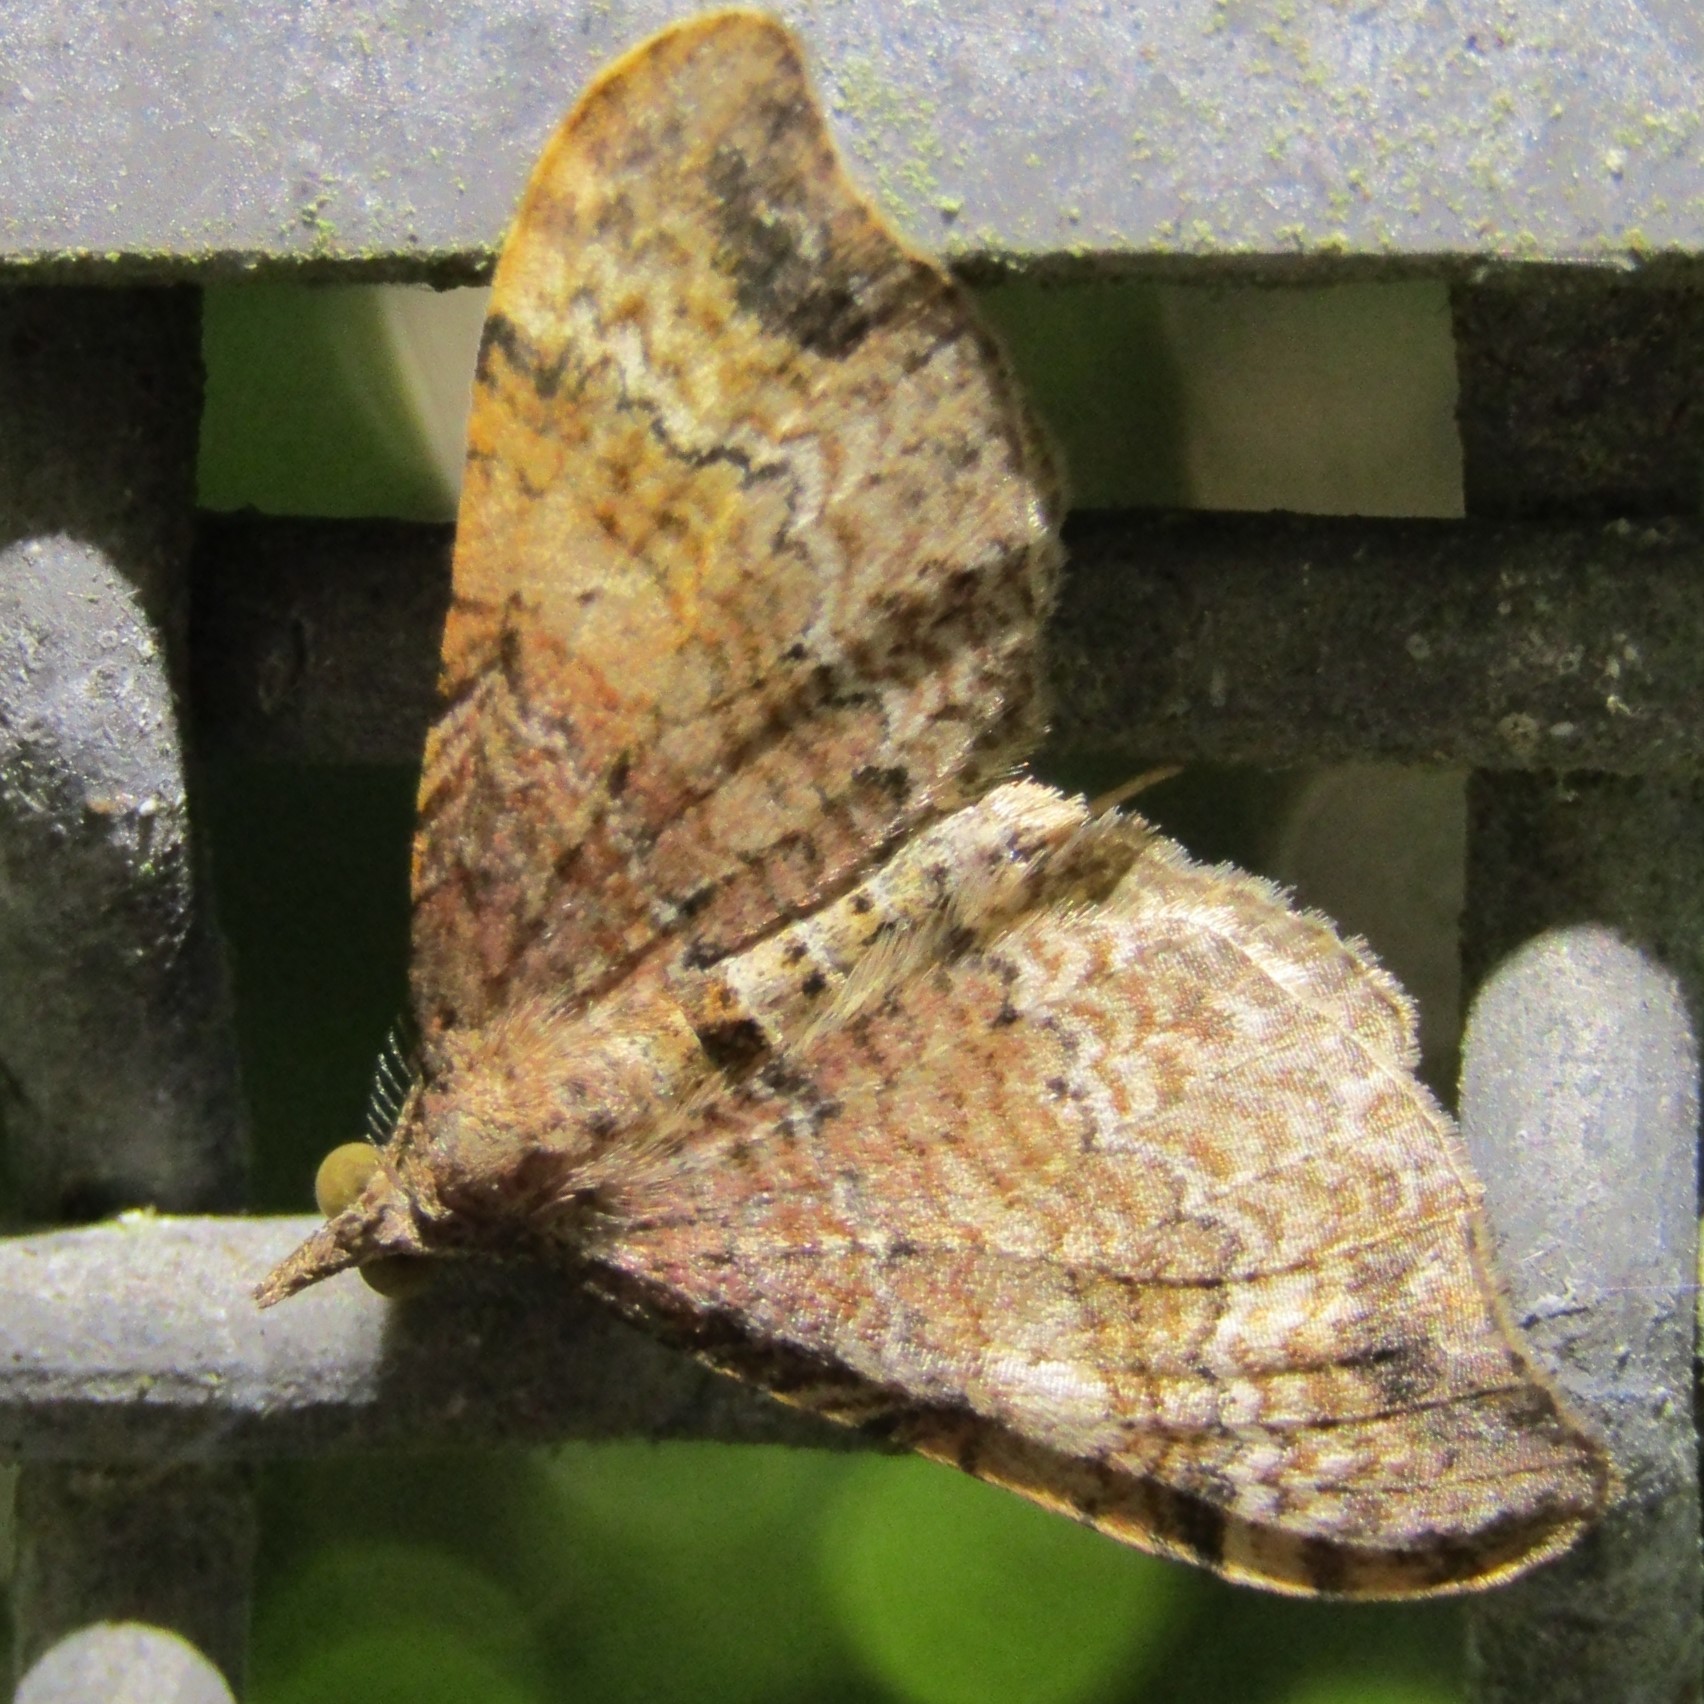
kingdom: Animalia
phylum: Arthropoda
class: Insecta
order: Lepidoptera
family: Geometridae
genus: Homodotis
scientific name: Homodotis megaspilata
